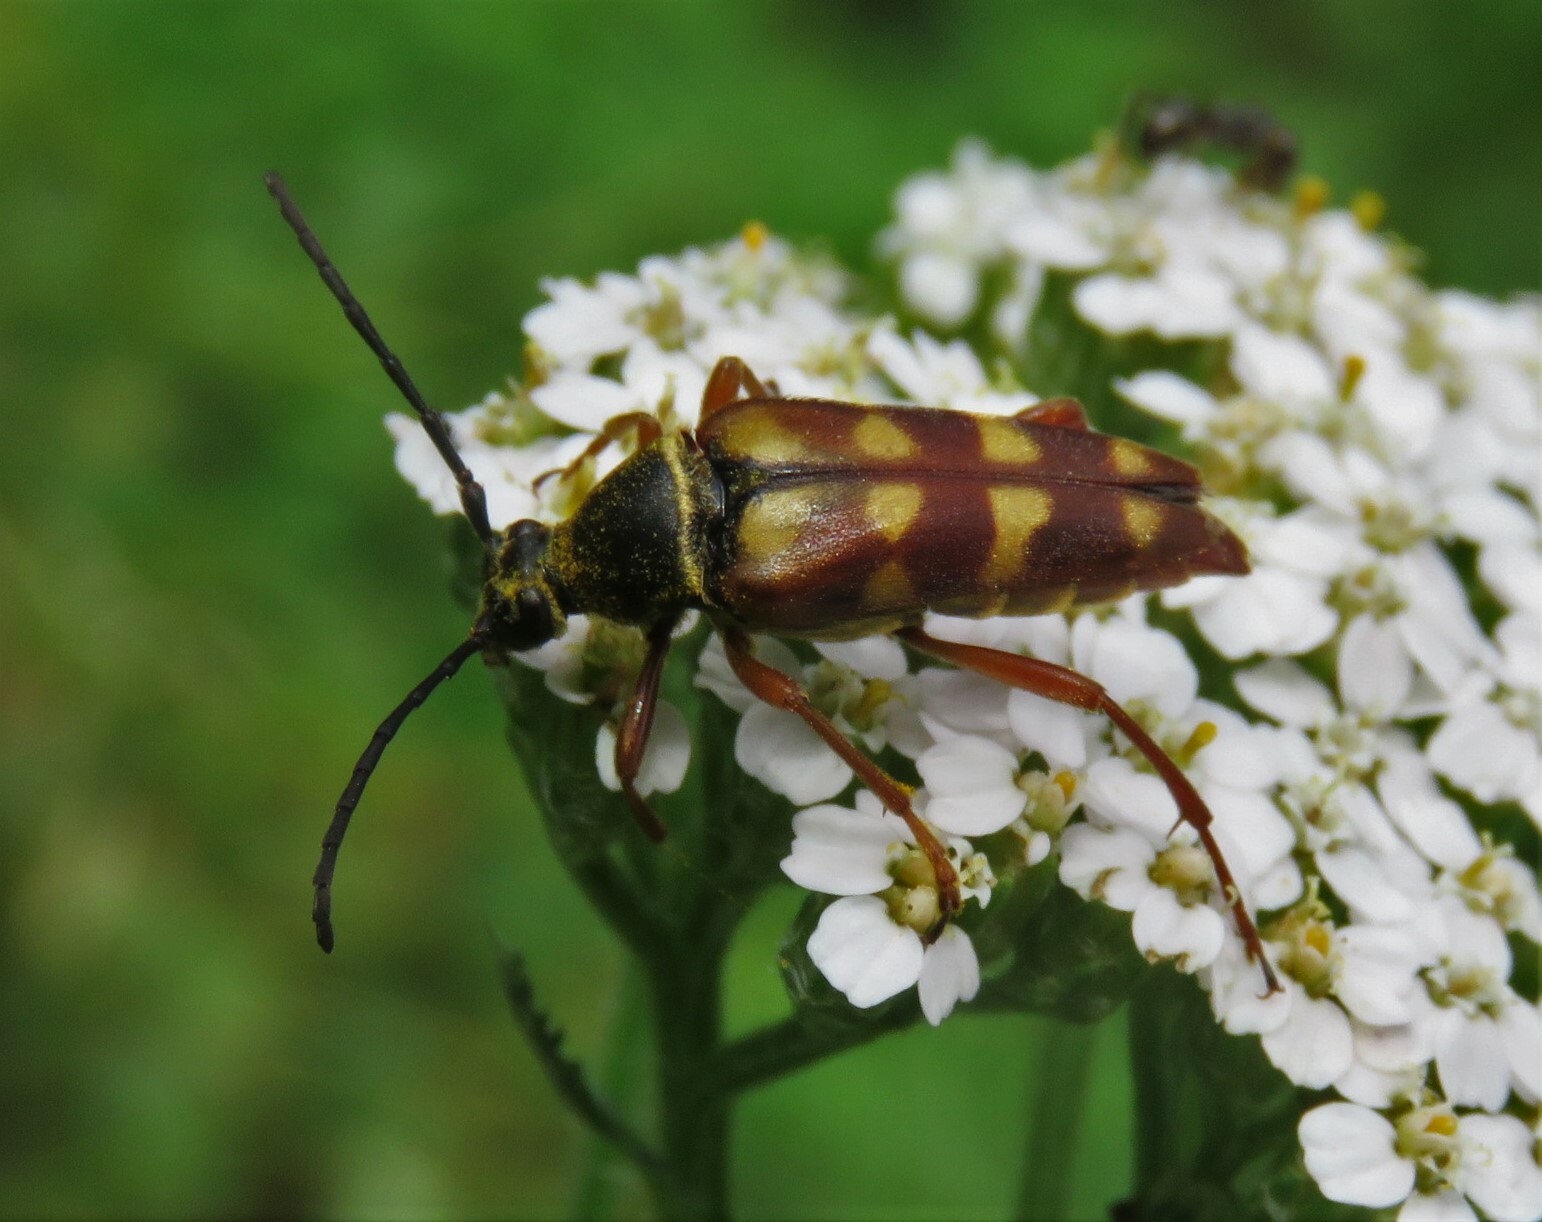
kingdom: Animalia
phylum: Arthropoda
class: Insecta
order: Coleoptera
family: Cerambycidae
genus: Typocerus
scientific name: Typocerus velutinus
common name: Banded longhorn beetle
